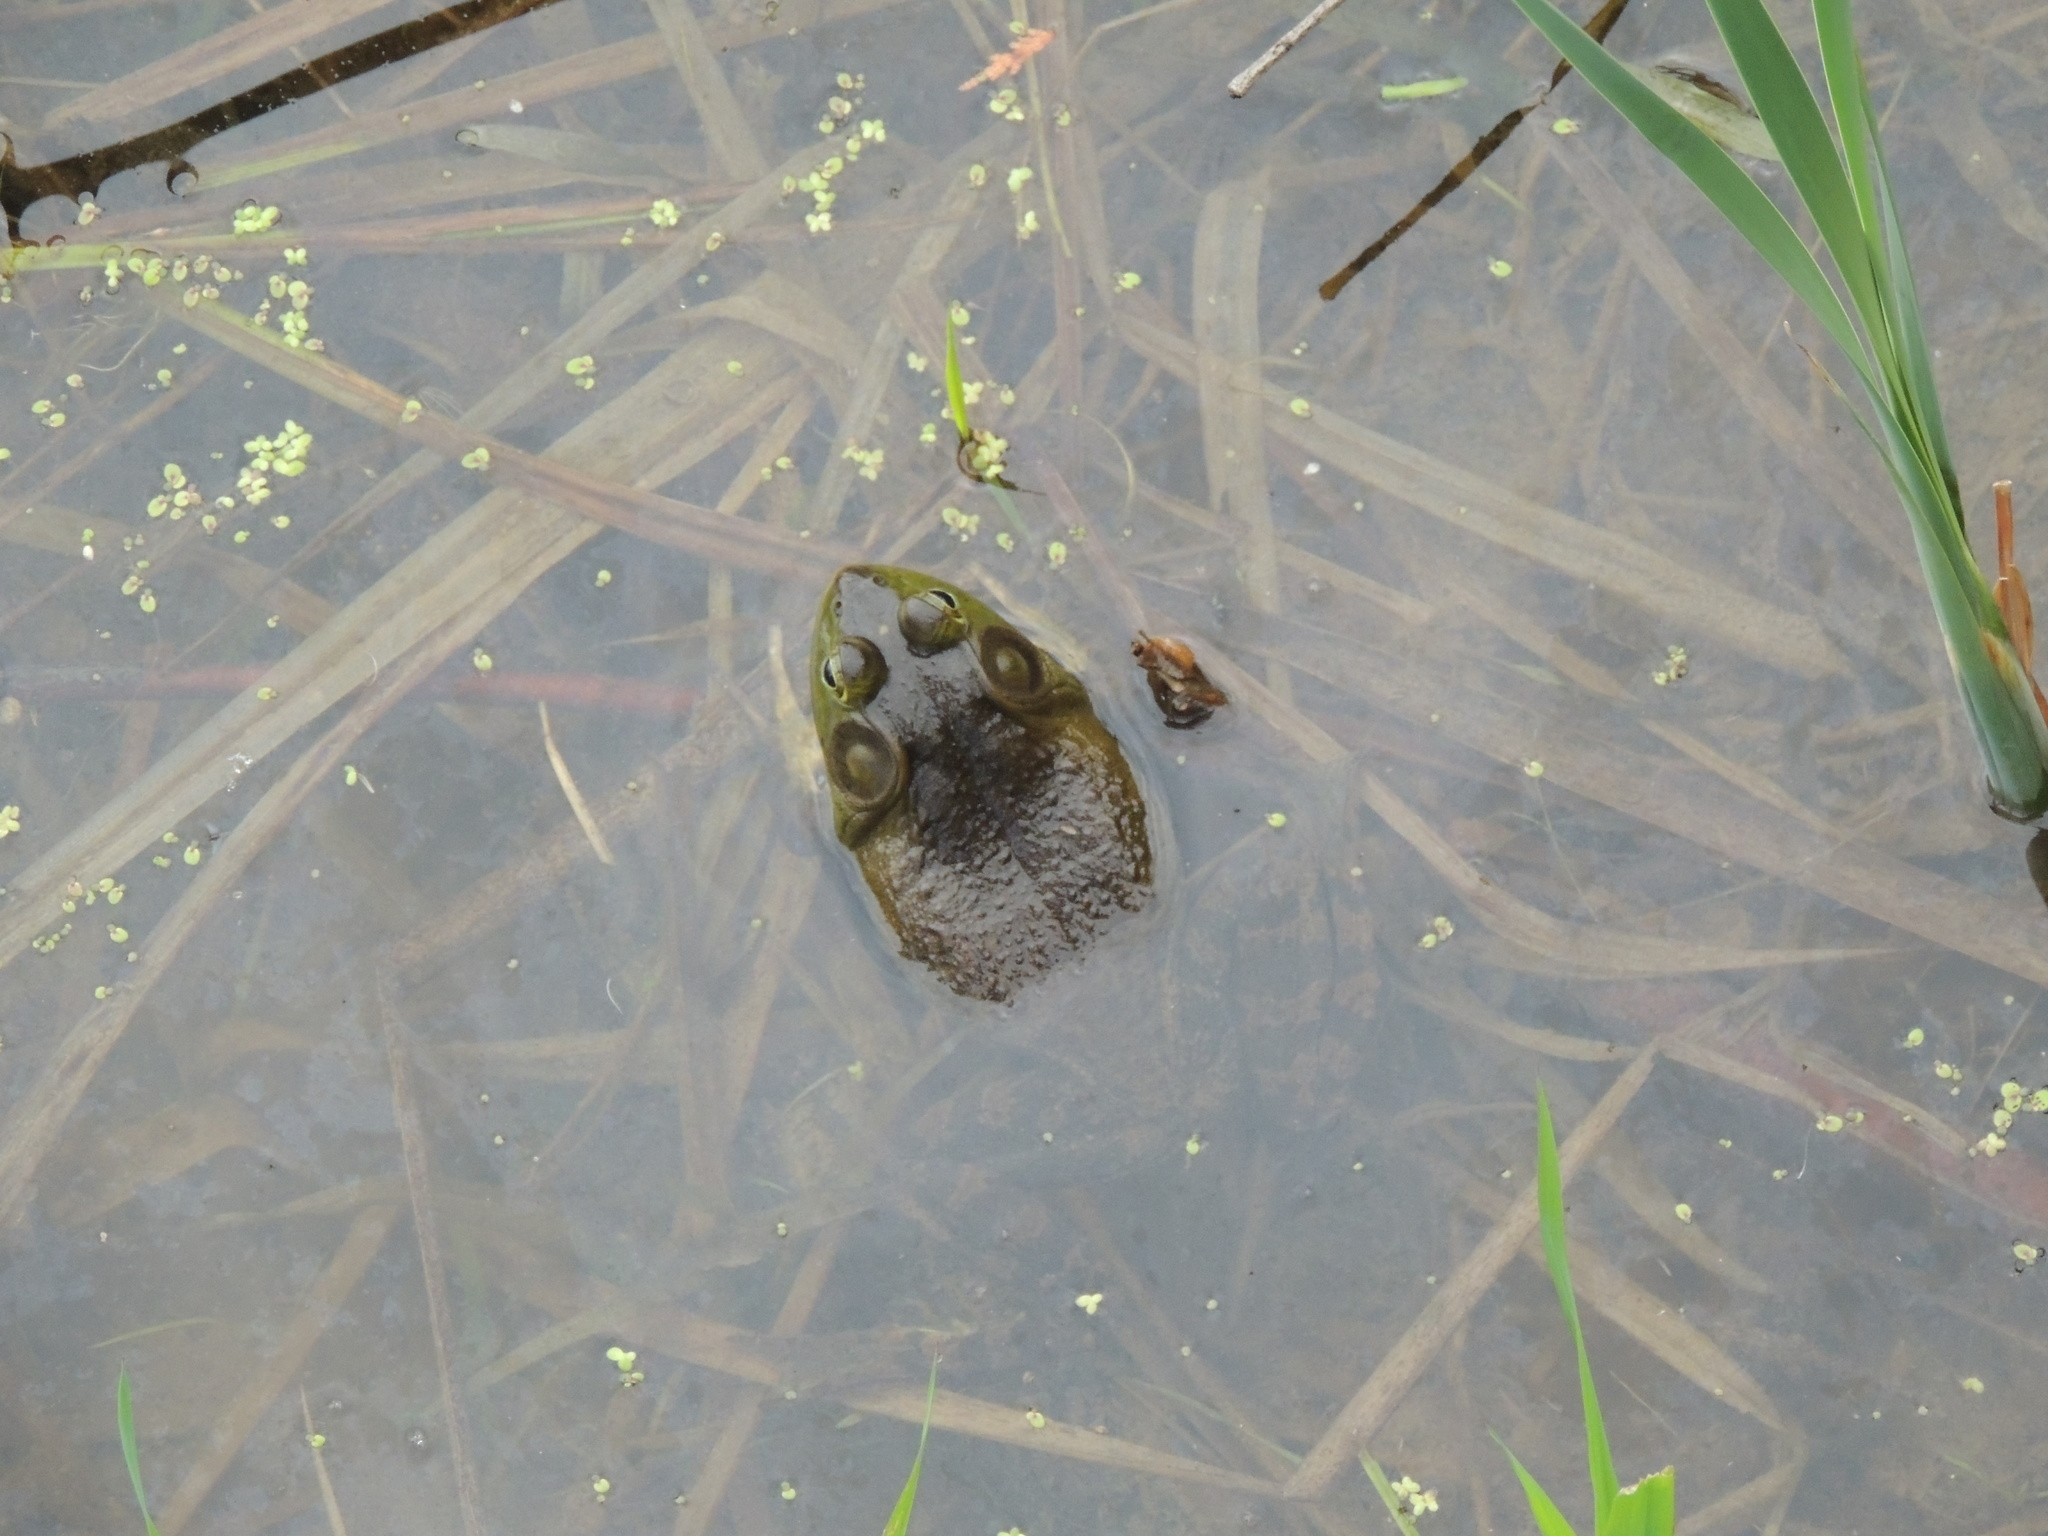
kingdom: Animalia
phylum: Chordata
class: Amphibia
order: Anura
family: Ranidae
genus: Lithobates
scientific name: Lithobates catesbeianus
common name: American bullfrog
